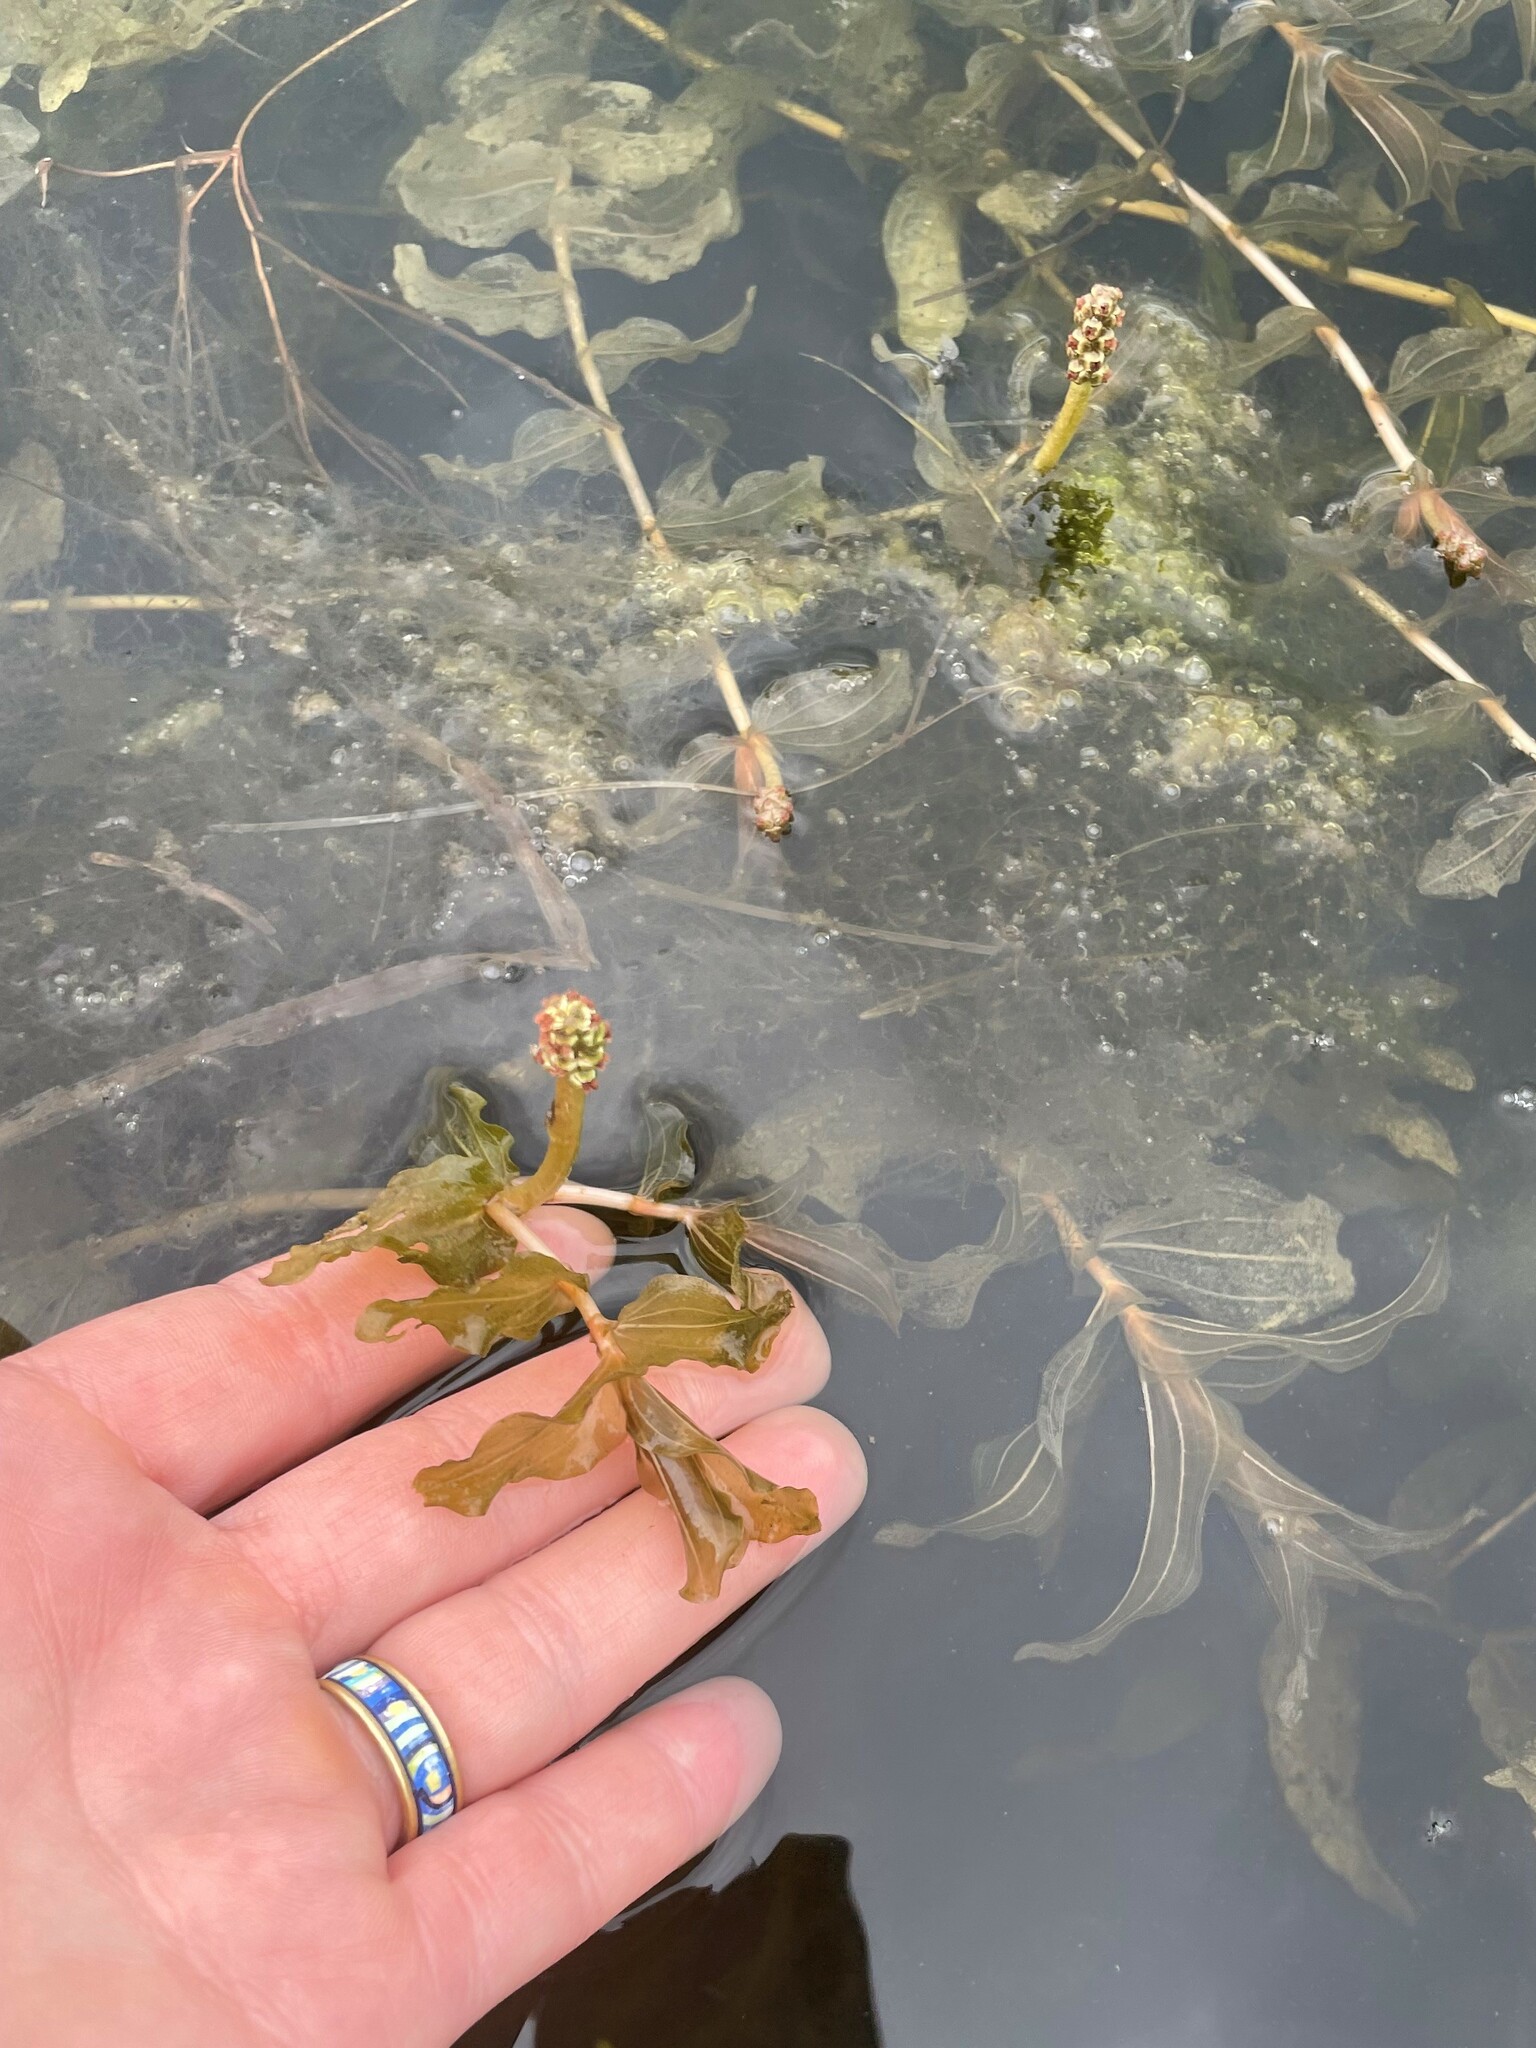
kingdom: Plantae
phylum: Tracheophyta
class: Liliopsida
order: Alismatales
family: Potamogetonaceae
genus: Potamogeton
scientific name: Potamogeton perfoliatus
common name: Perfoliate pondweed
